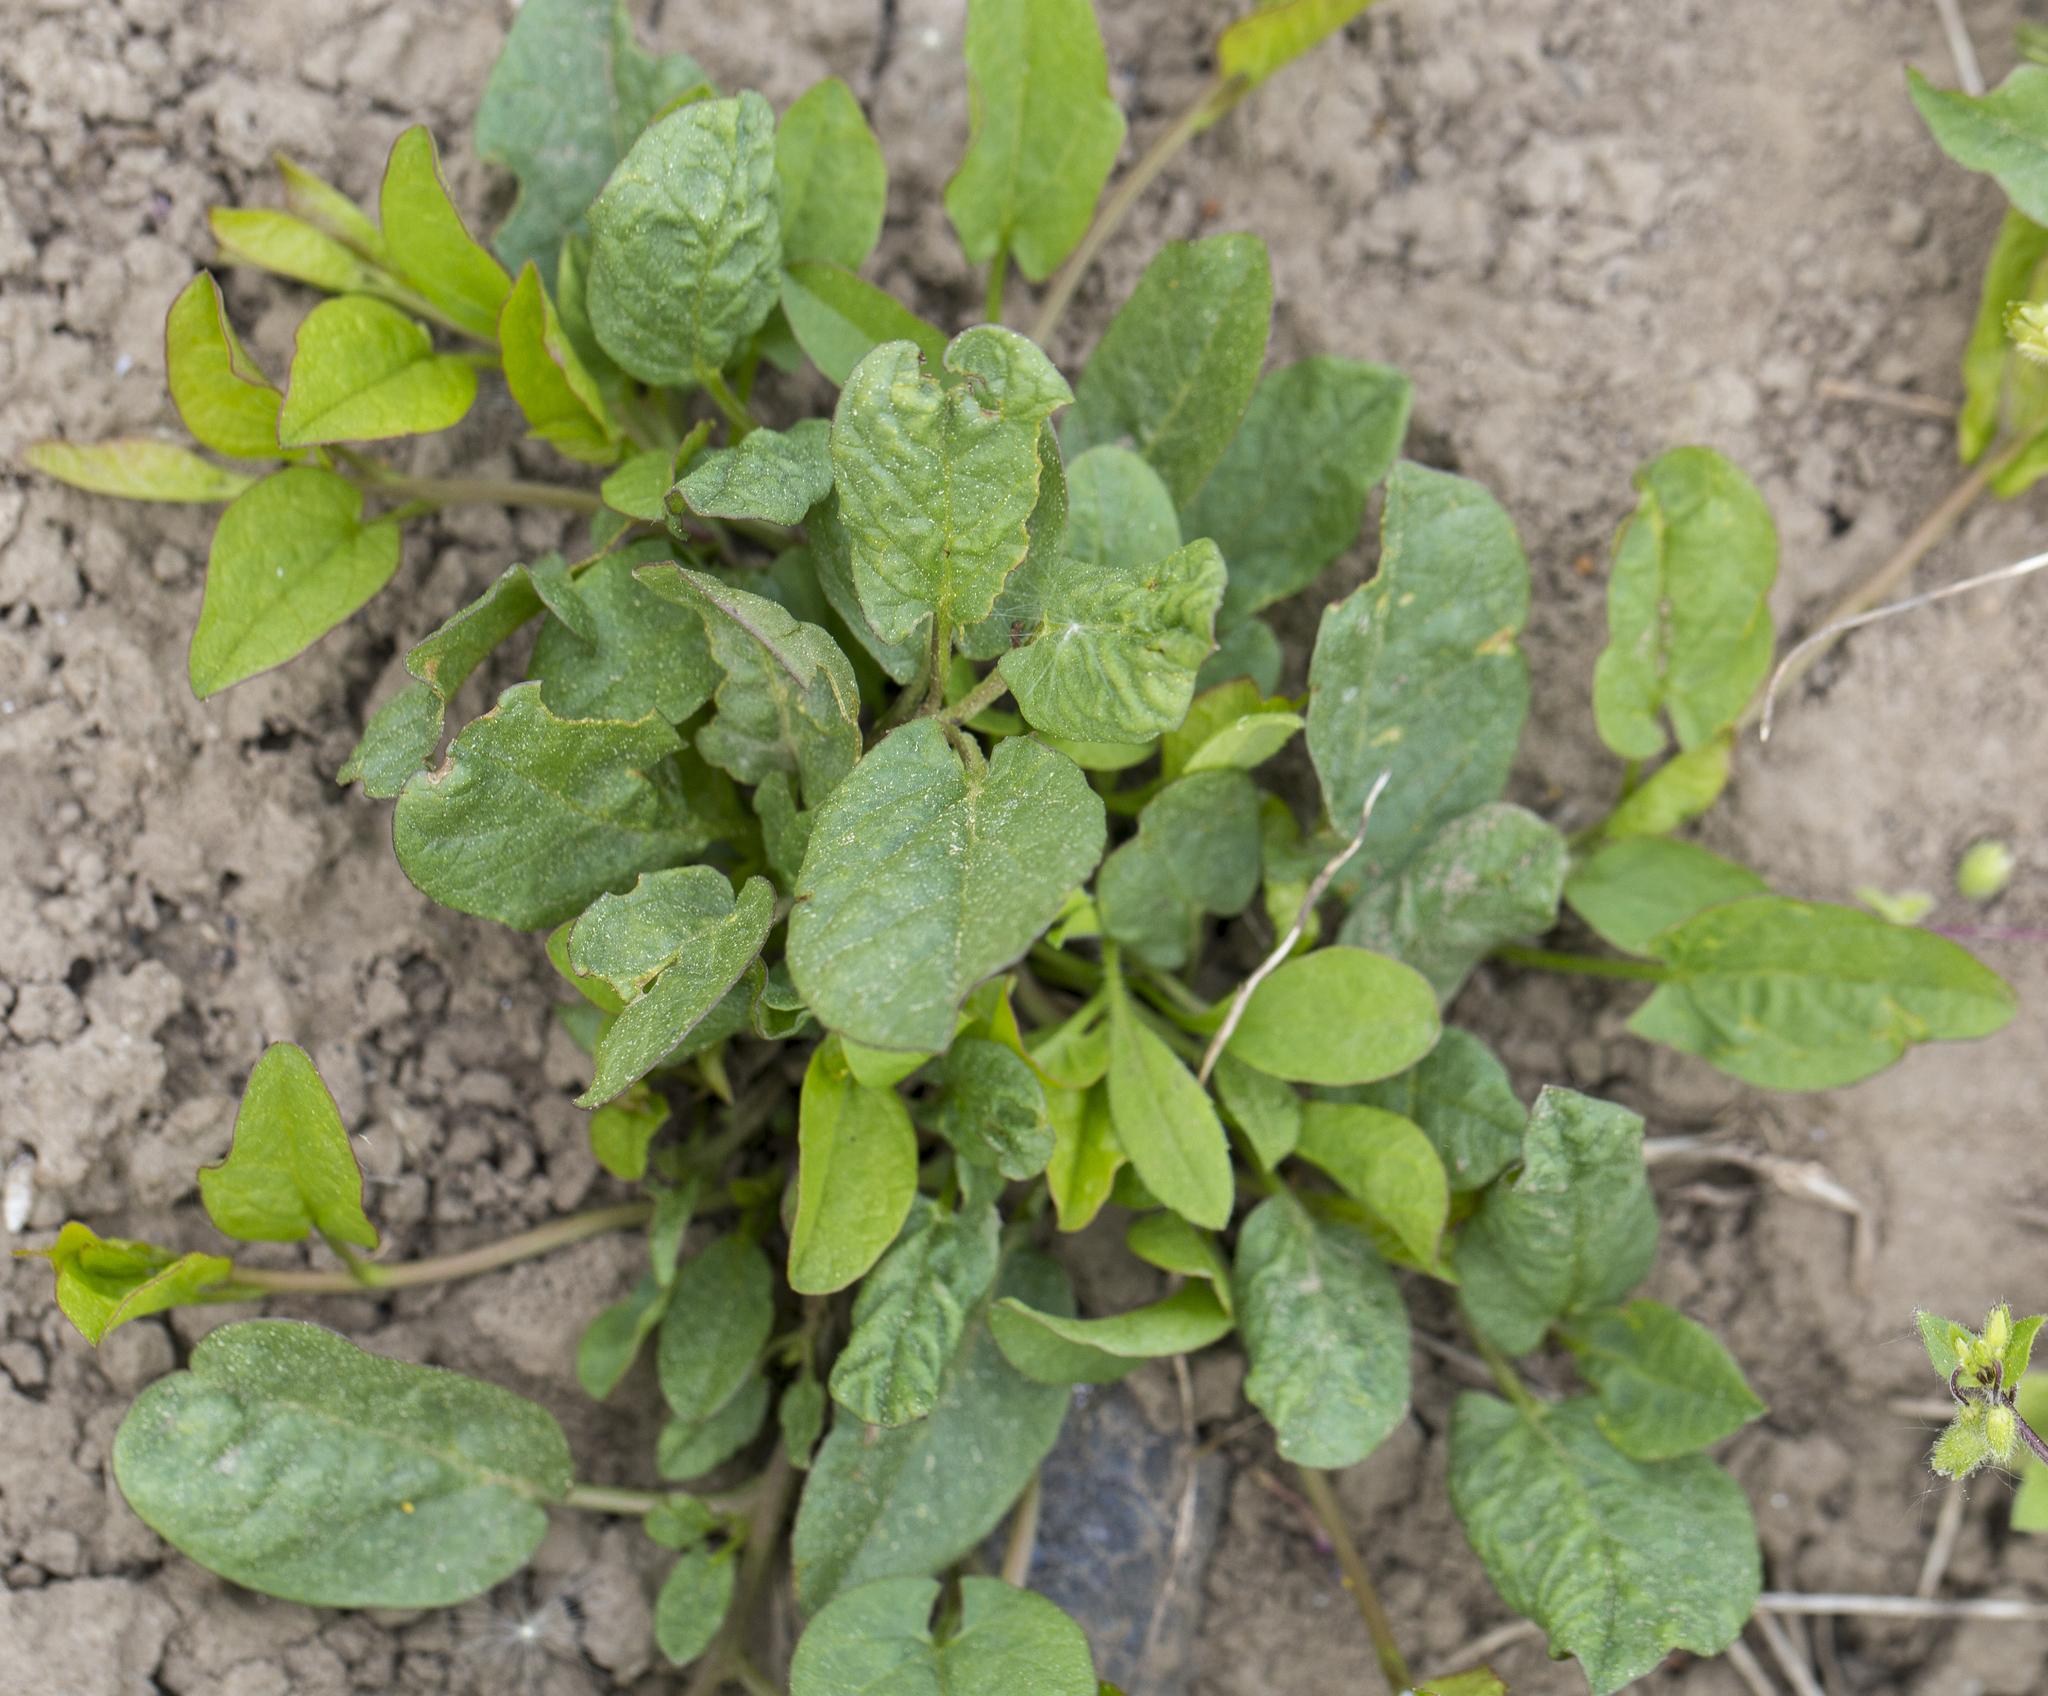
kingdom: Plantae
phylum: Tracheophyta
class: Magnoliopsida
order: Solanales
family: Convolvulaceae
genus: Convolvulus
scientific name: Convolvulus arvensis
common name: Field bindweed
